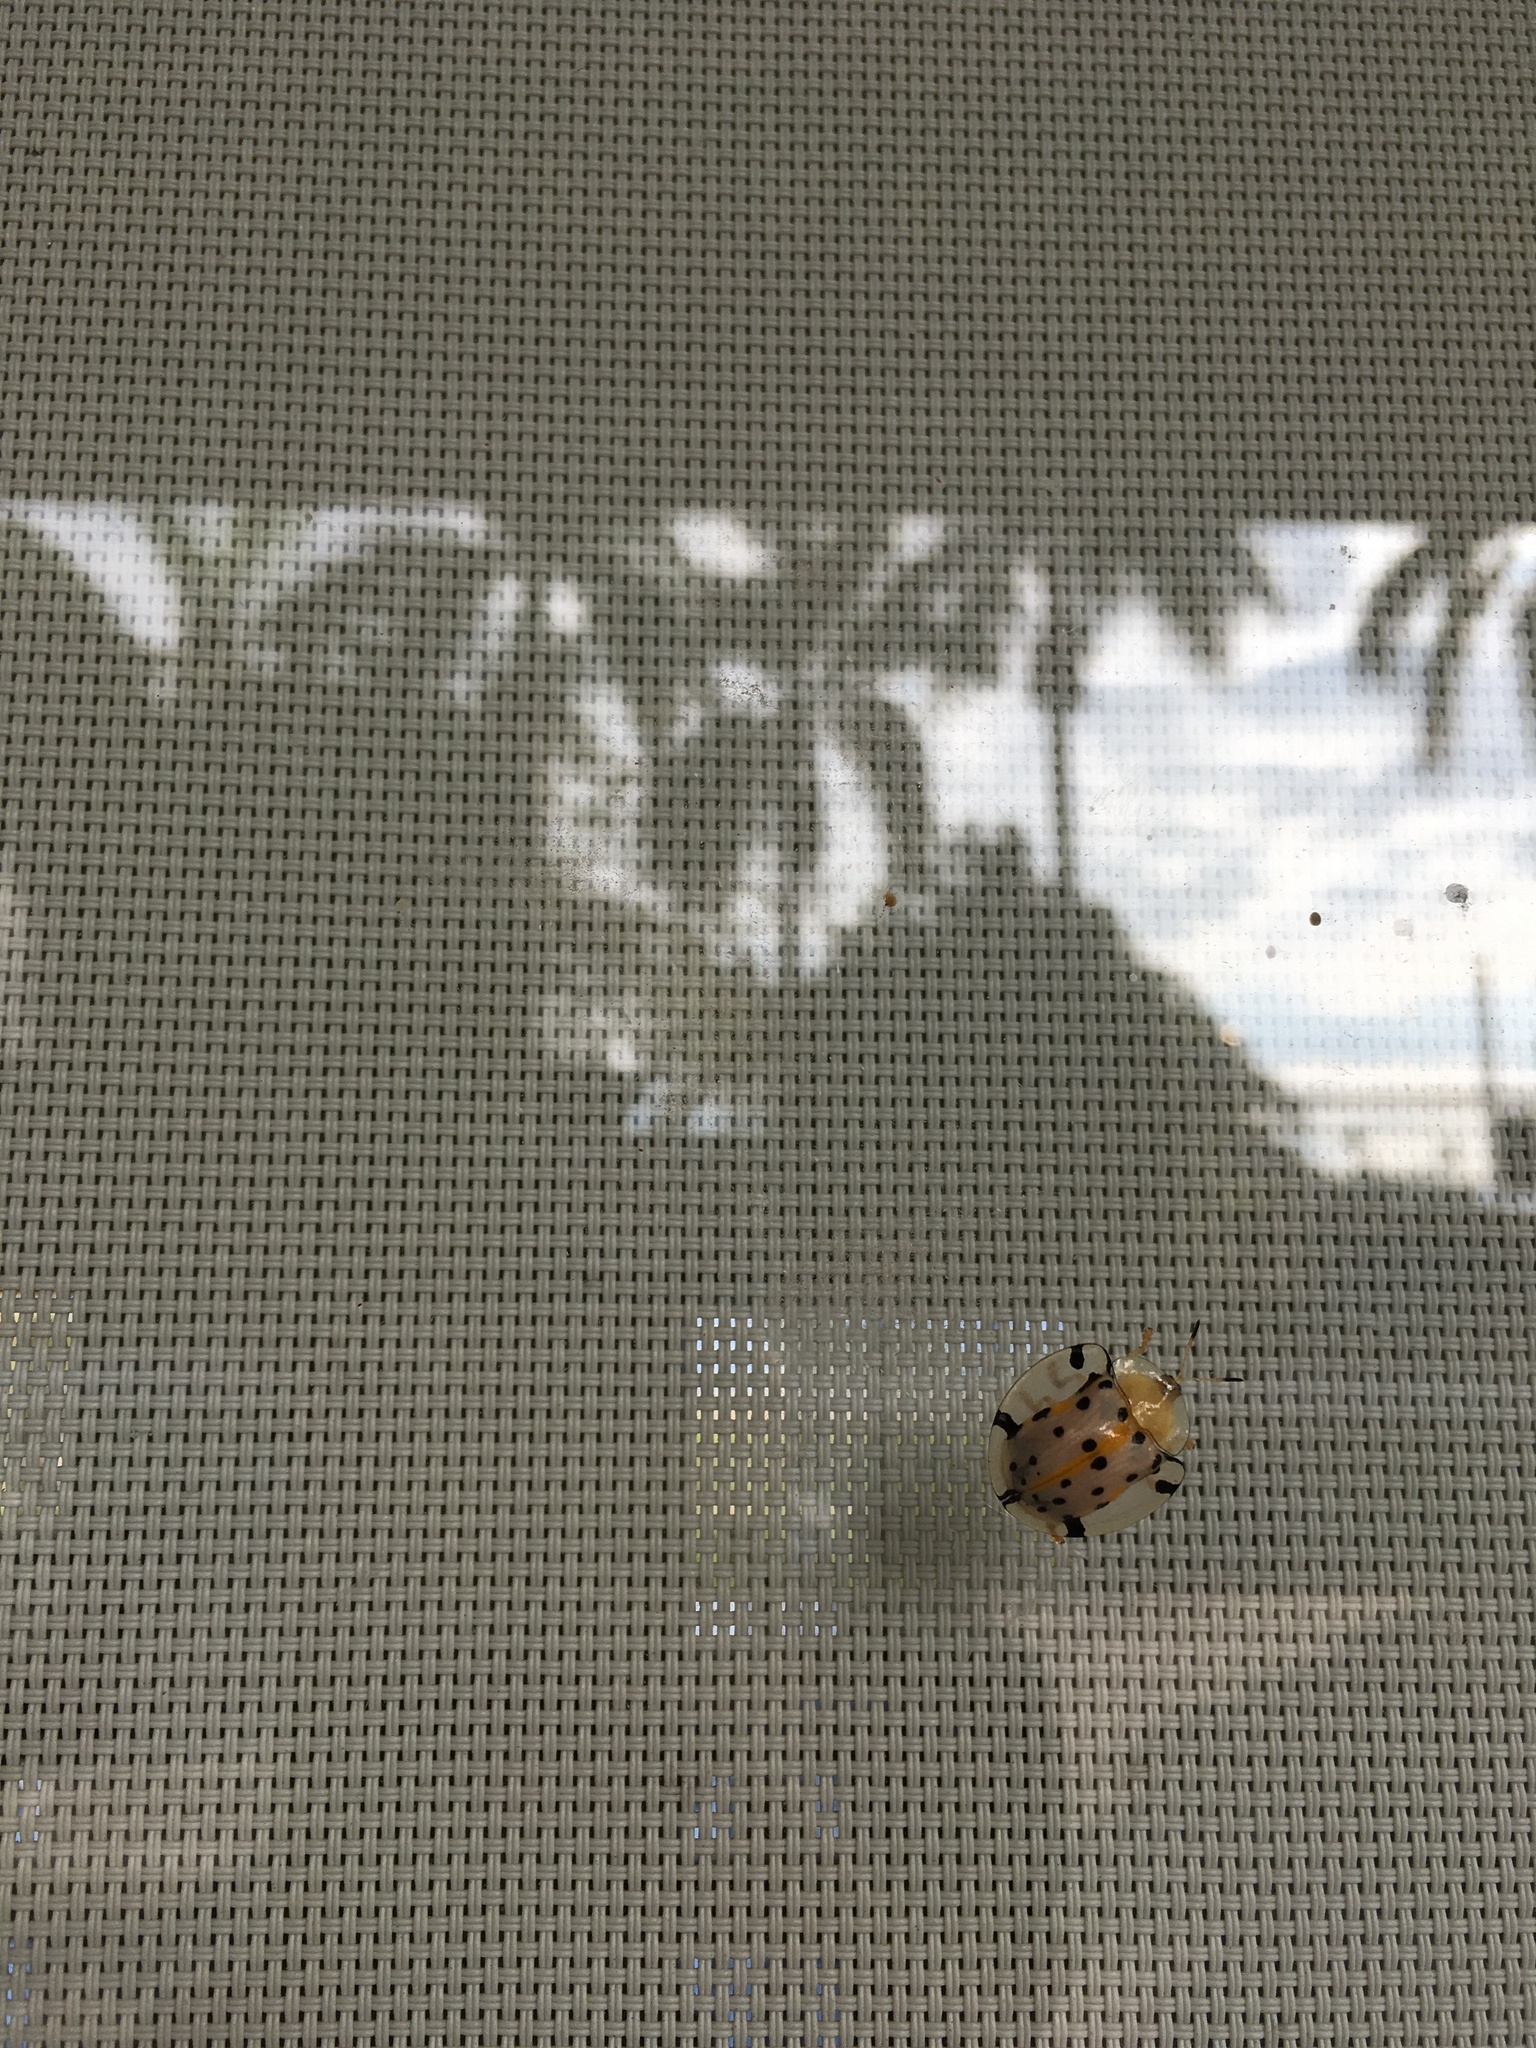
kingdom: Animalia
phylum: Arthropoda
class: Insecta
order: Coleoptera
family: Chrysomelidae
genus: Aspidimorpha
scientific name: Aspidimorpha miliaris
